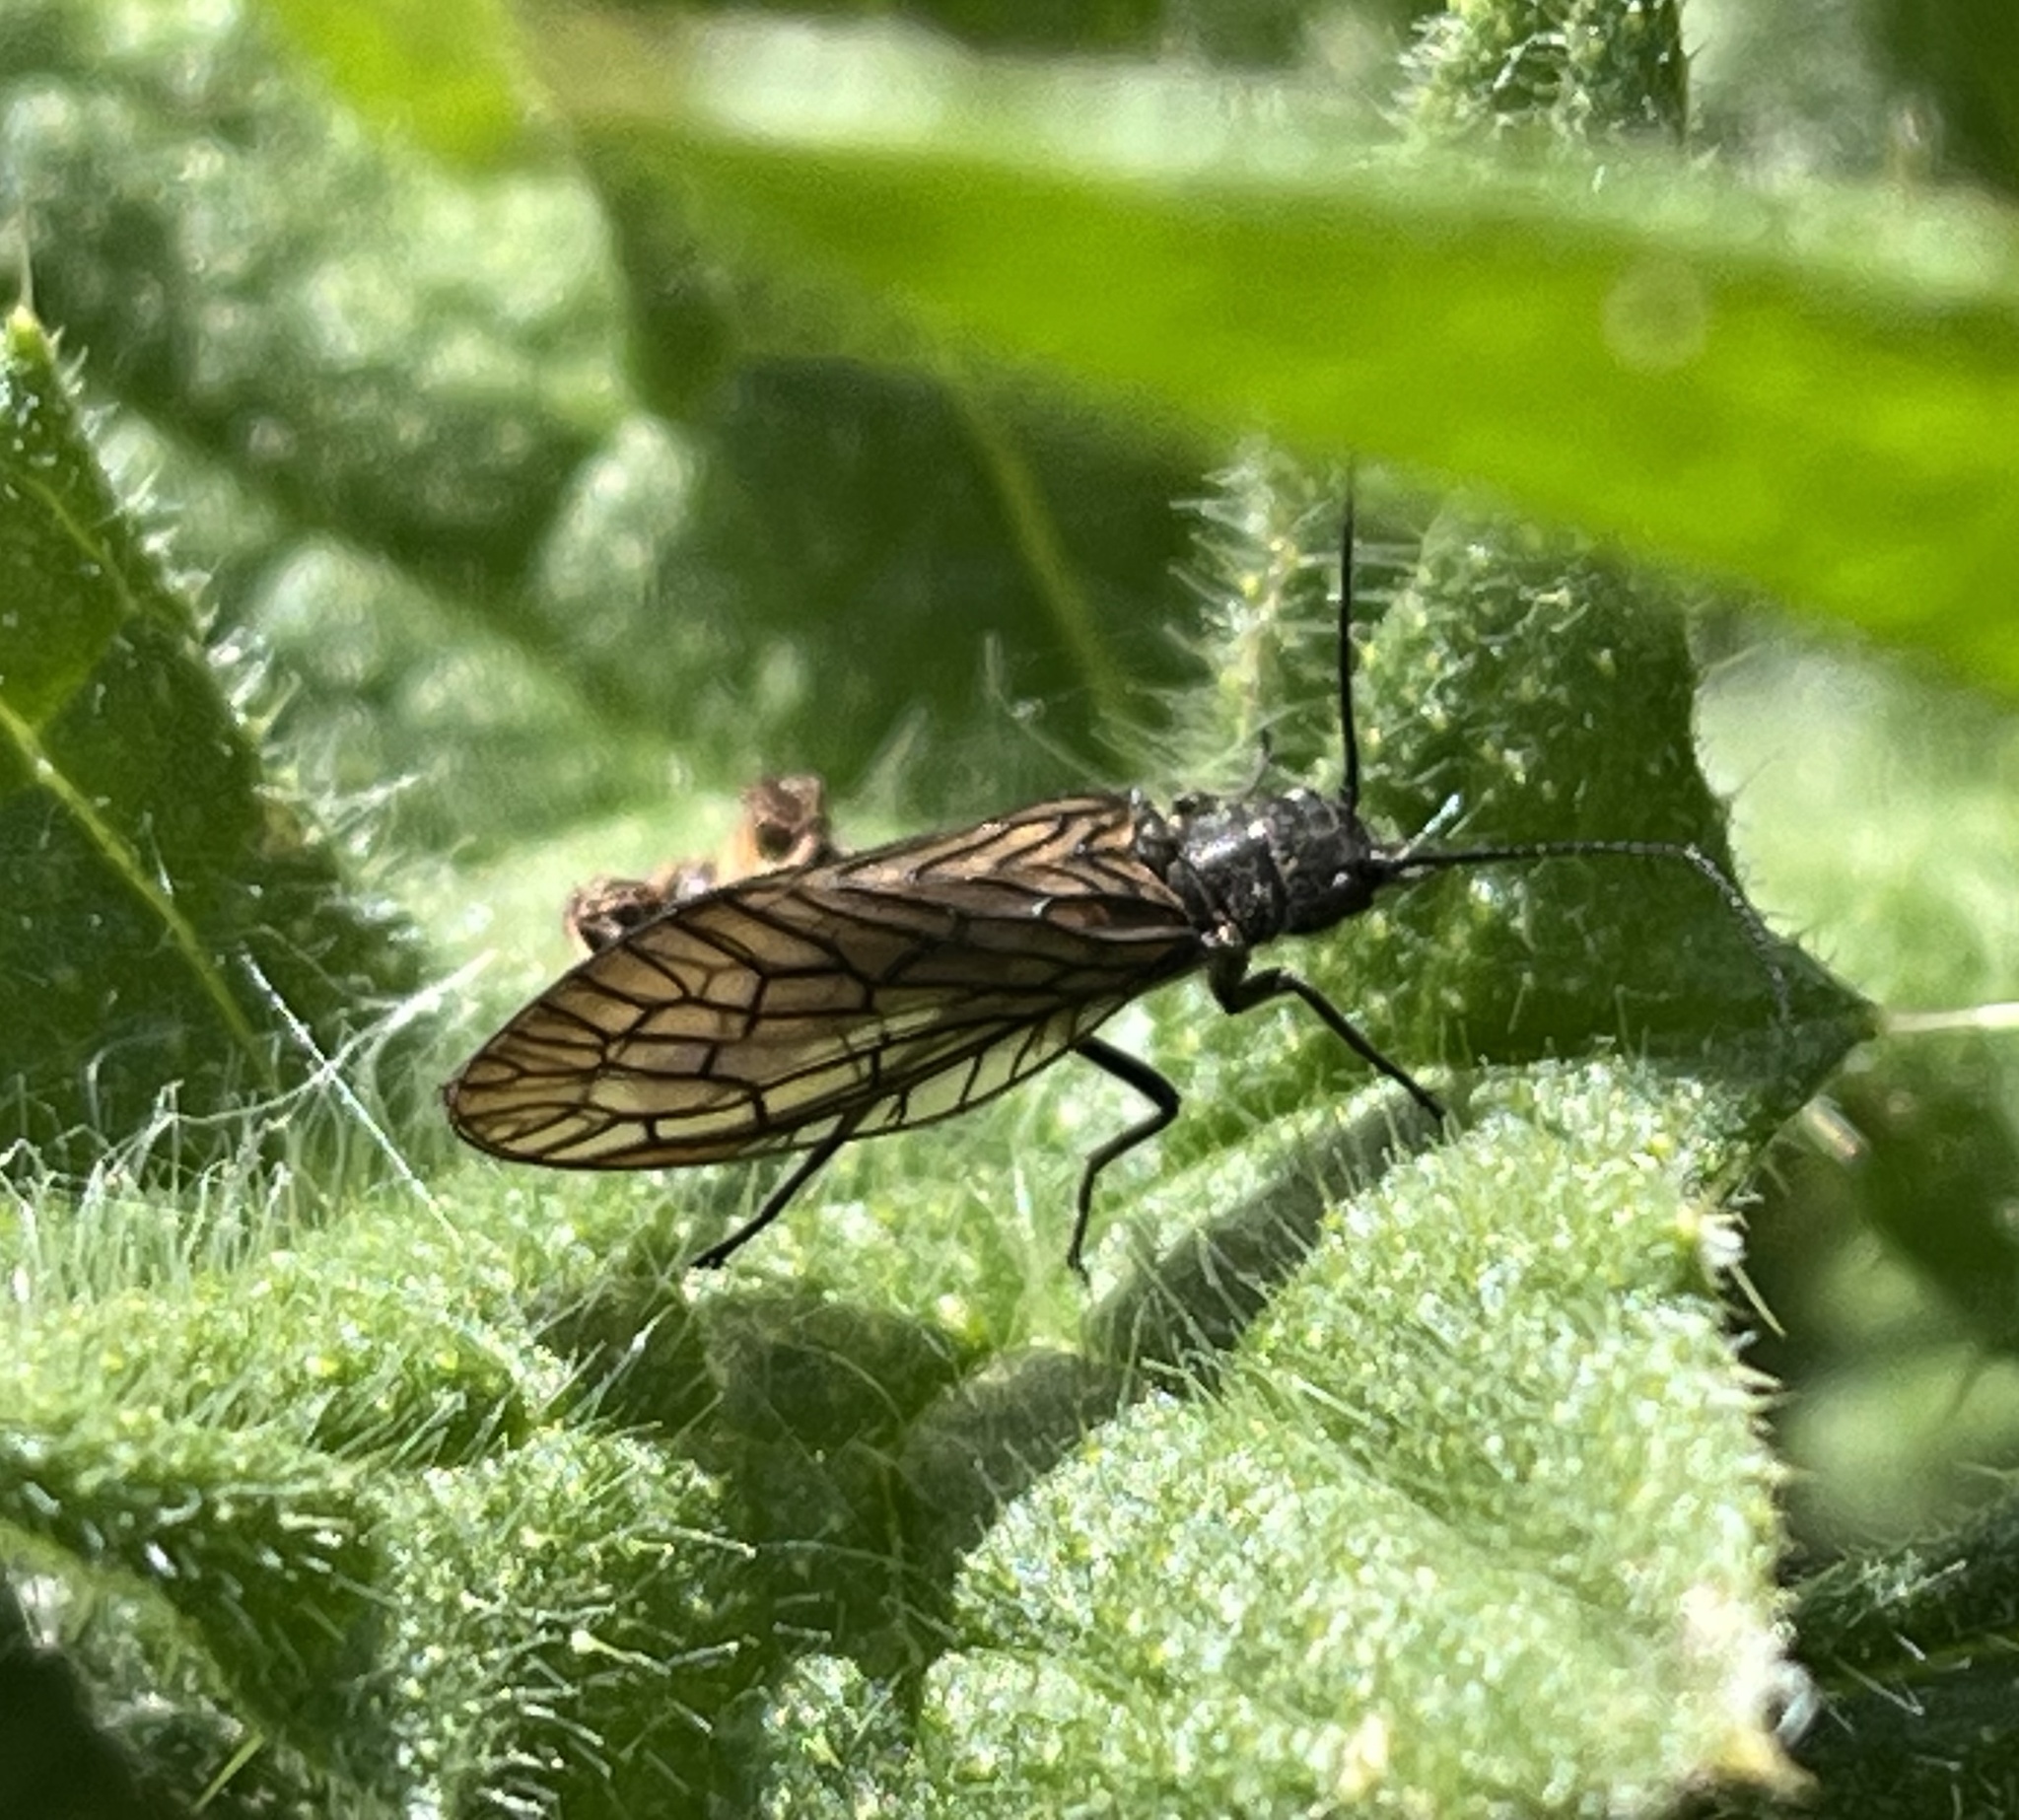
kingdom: Animalia
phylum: Arthropoda
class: Insecta
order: Megaloptera
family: Sialidae
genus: Sialis
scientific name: Sialis
